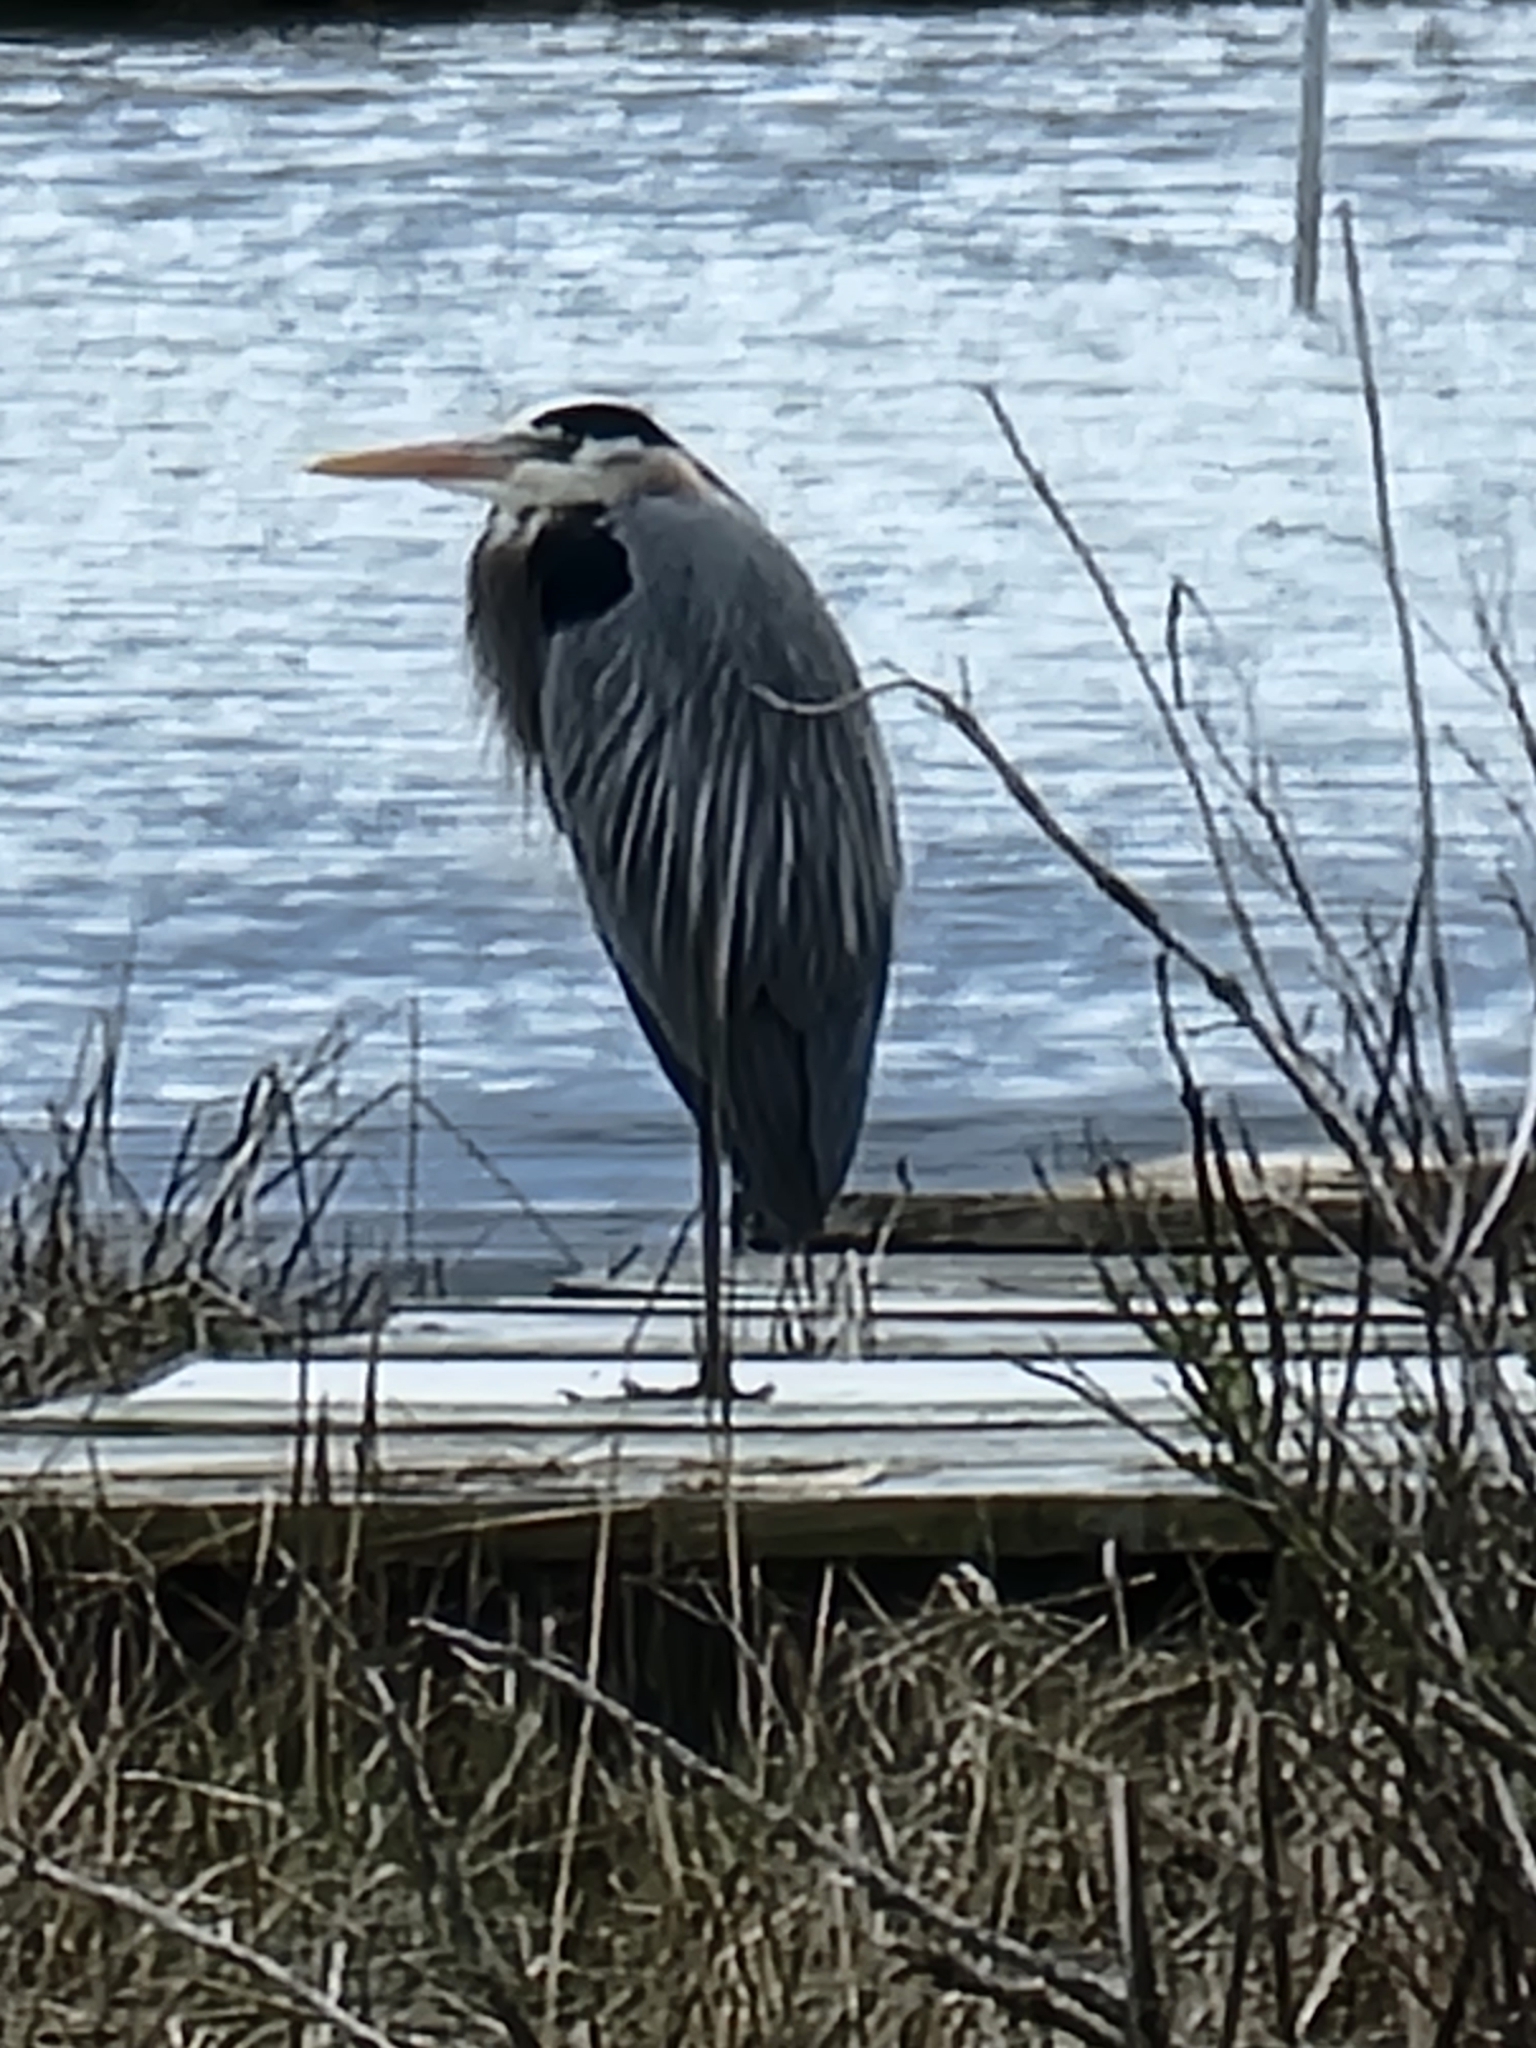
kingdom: Animalia
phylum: Chordata
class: Aves
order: Pelecaniformes
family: Ardeidae
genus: Ardea
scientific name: Ardea herodias
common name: Great blue heron
